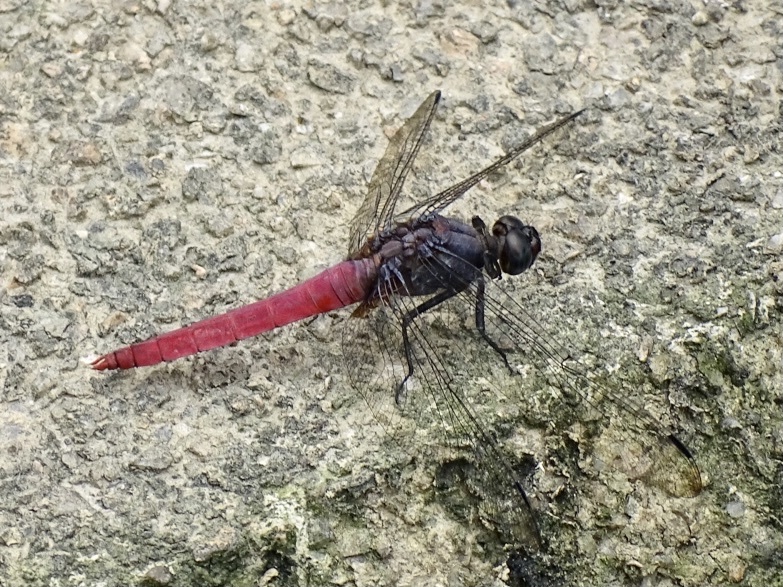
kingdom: Animalia
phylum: Arthropoda
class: Insecta
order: Odonata
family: Libellulidae
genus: Orthetrum
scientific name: Orthetrum pruinosum
